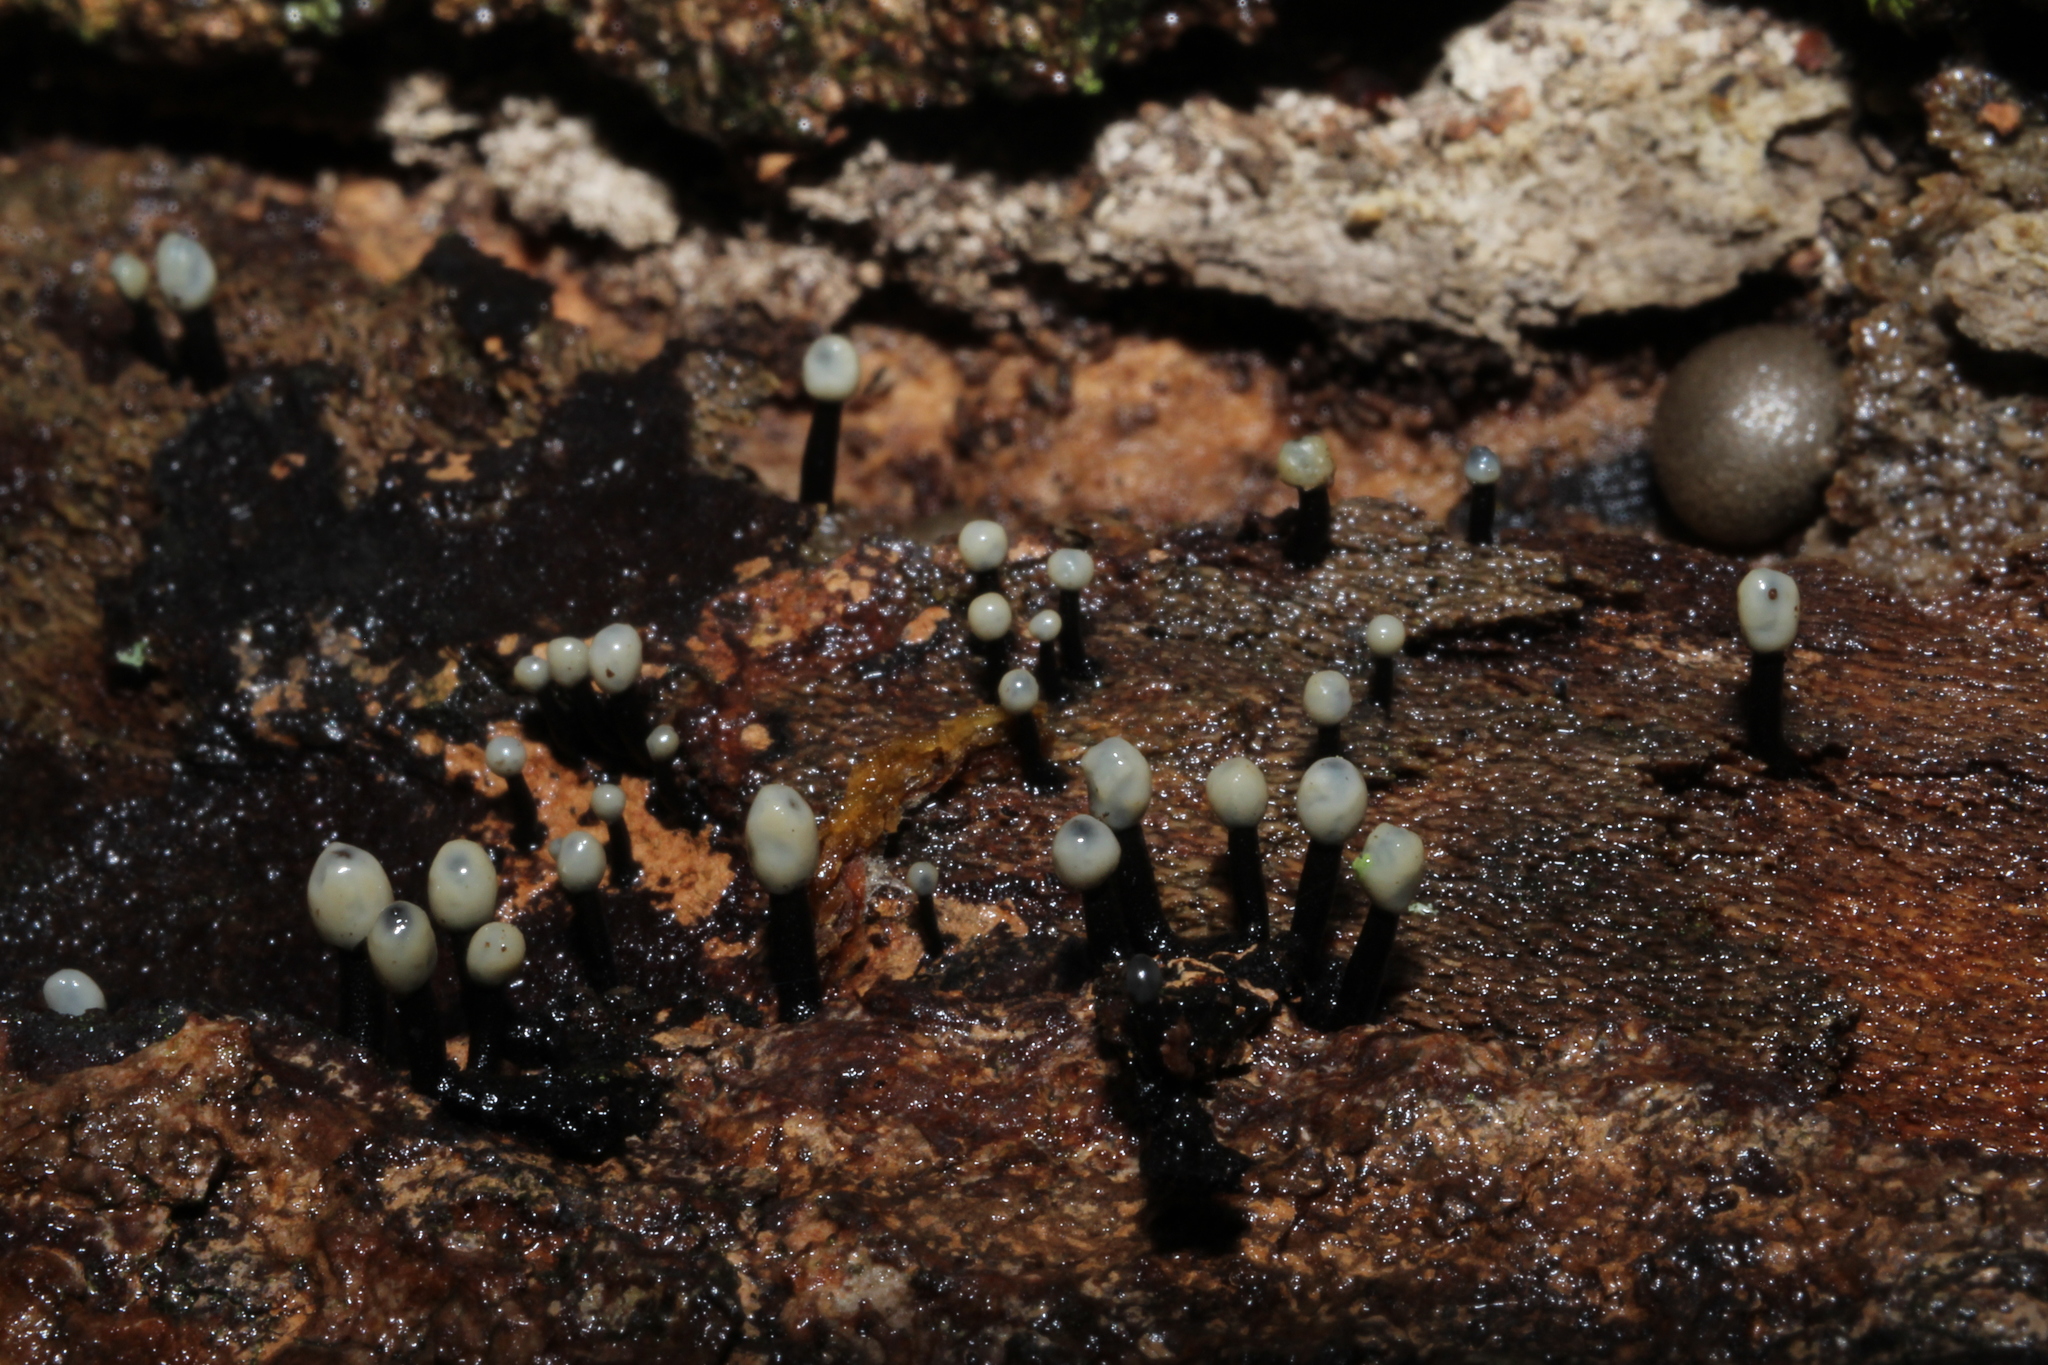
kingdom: Fungi
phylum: Ascomycota
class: Leotiomycetes
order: Helotiales
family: Bulgariaceae
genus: Holwaya
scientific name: Holwaya mucida
